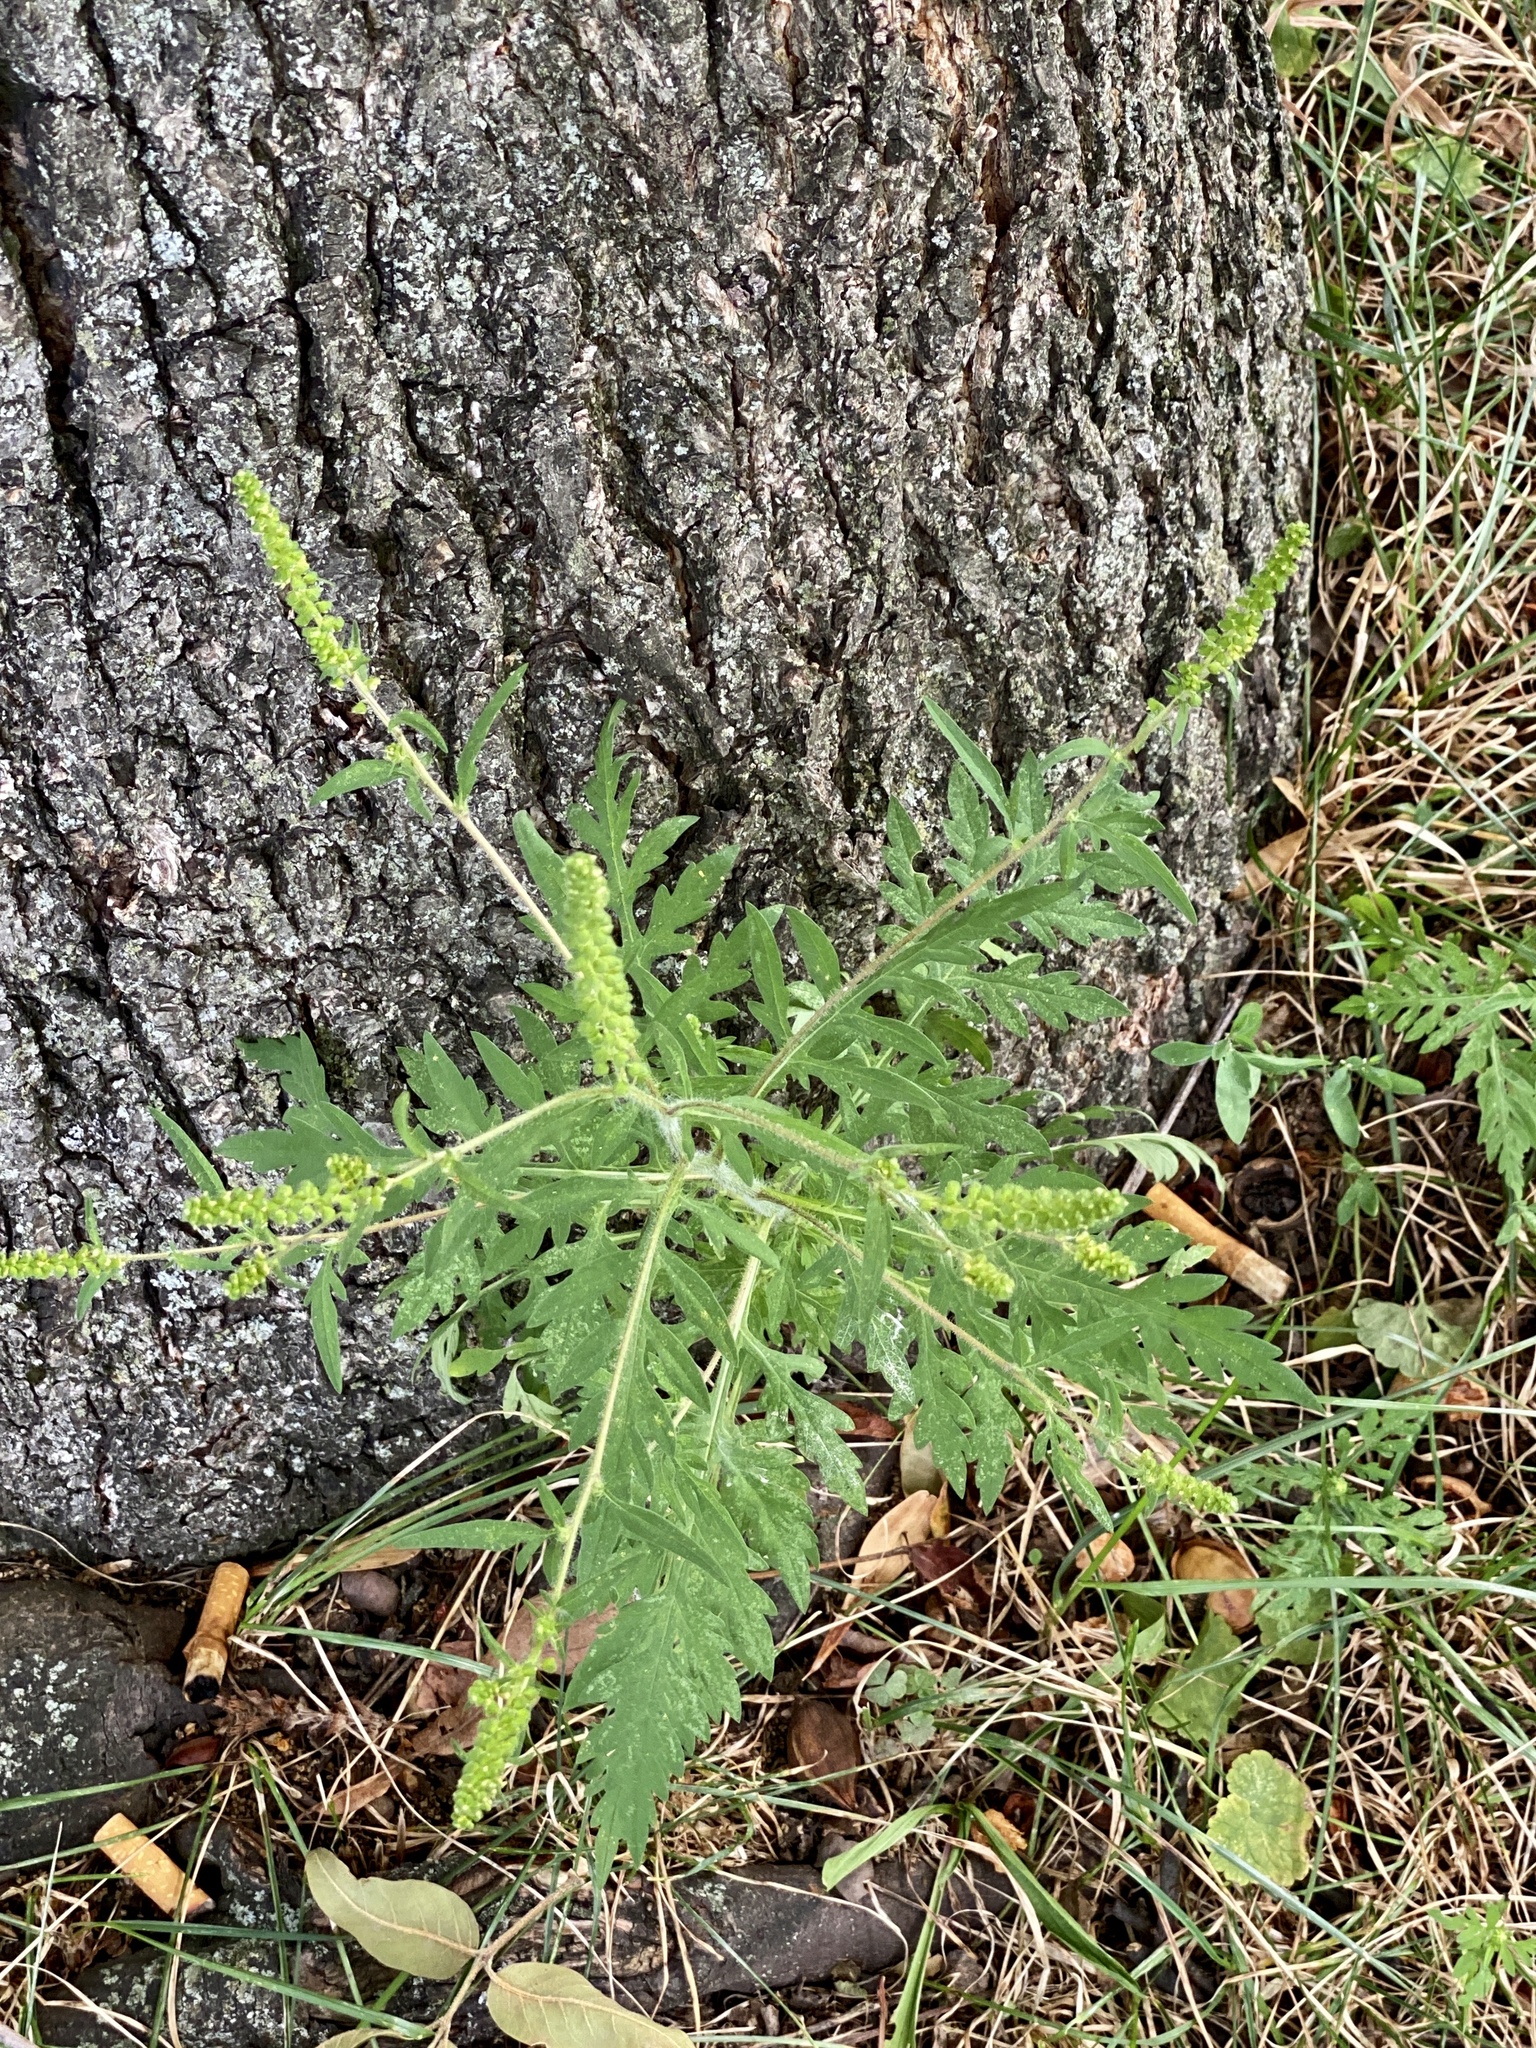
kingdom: Plantae
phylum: Tracheophyta
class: Magnoliopsida
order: Asterales
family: Asteraceae
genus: Ambrosia
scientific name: Ambrosia artemisiifolia
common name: Annual ragweed
